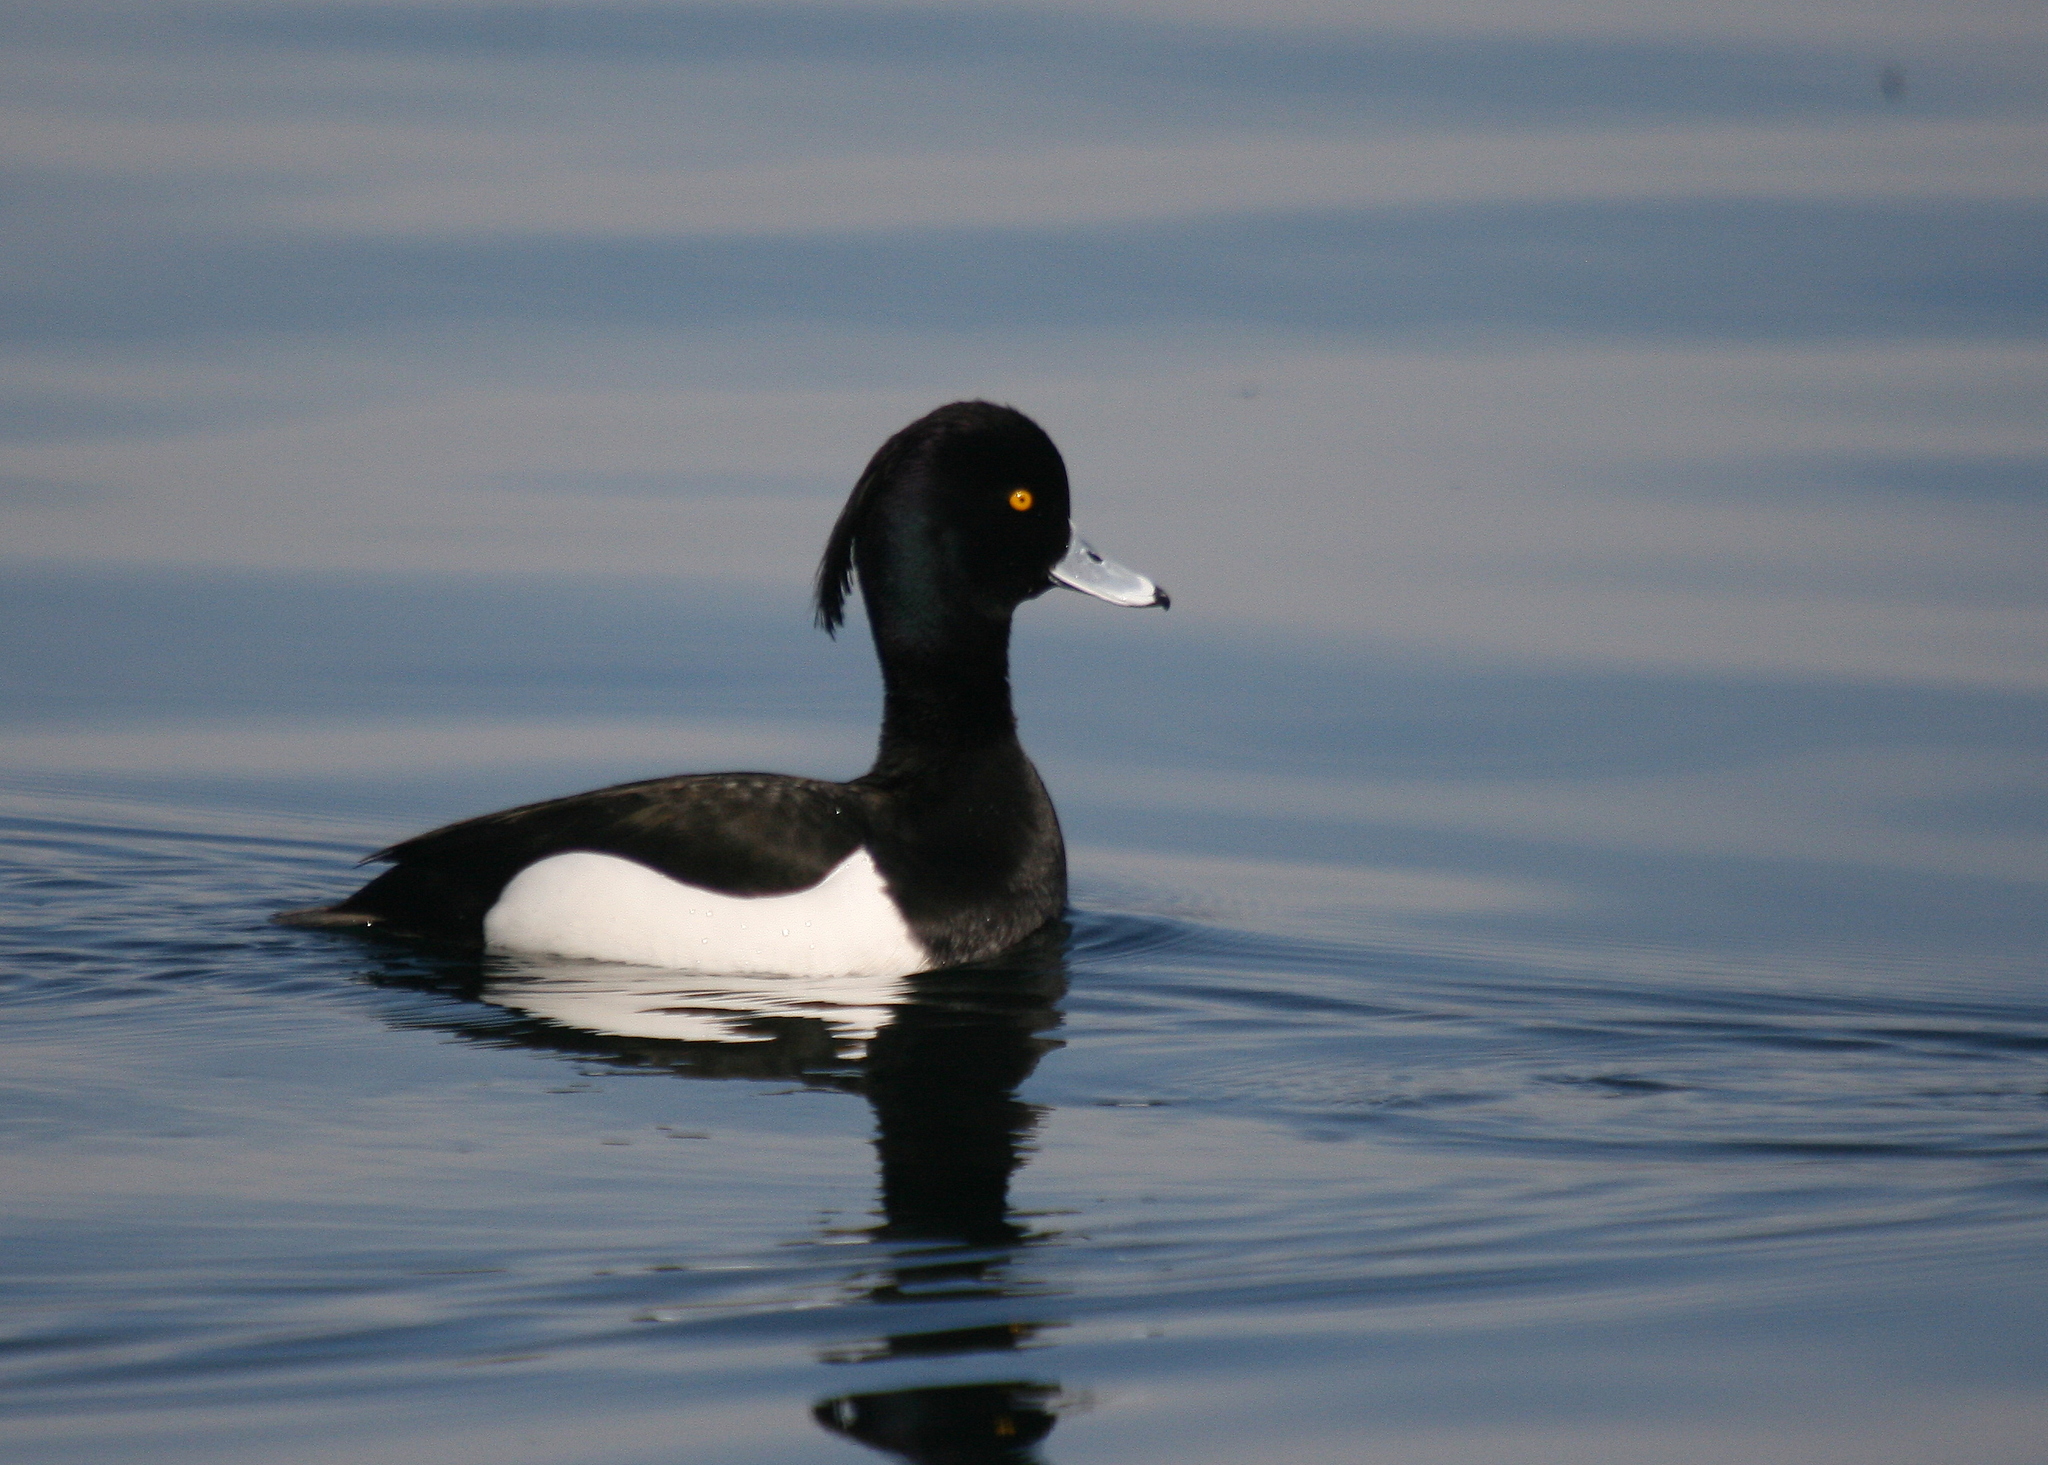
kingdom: Animalia
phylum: Chordata
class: Aves
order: Anseriformes
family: Anatidae
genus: Aythya
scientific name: Aythya fuligula
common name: Tufted duck
